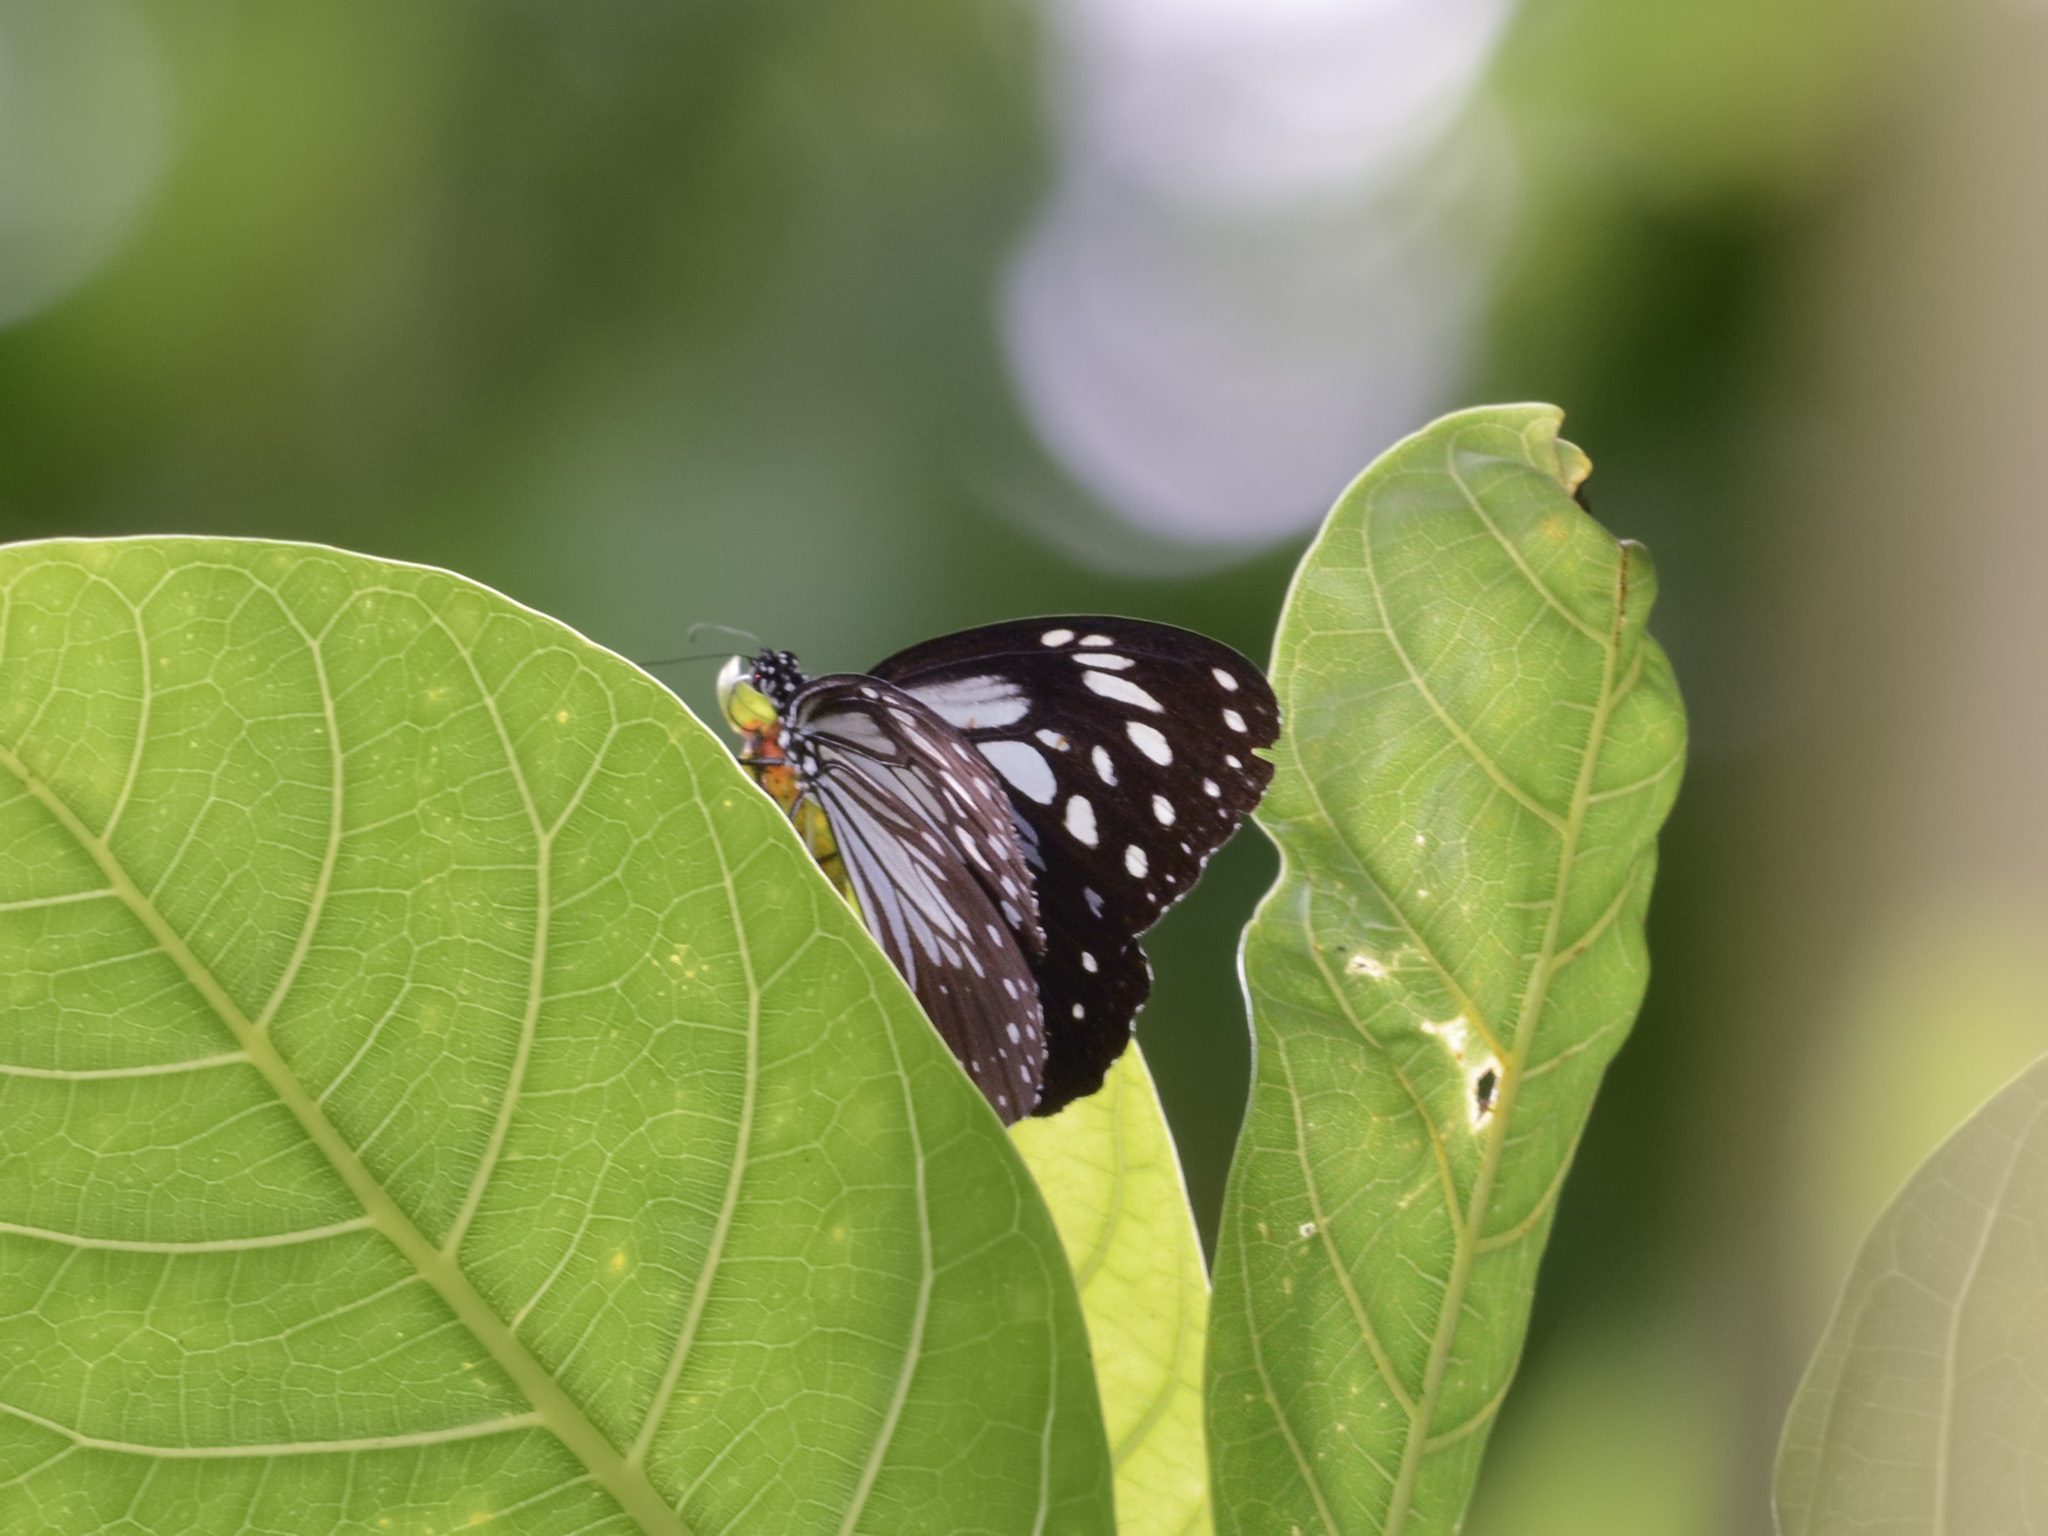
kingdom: Animalia
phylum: Arthropoda
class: Insecta
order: Lepidoptera
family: Nymphalidae
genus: Parantica
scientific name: Parantica luzonensis
